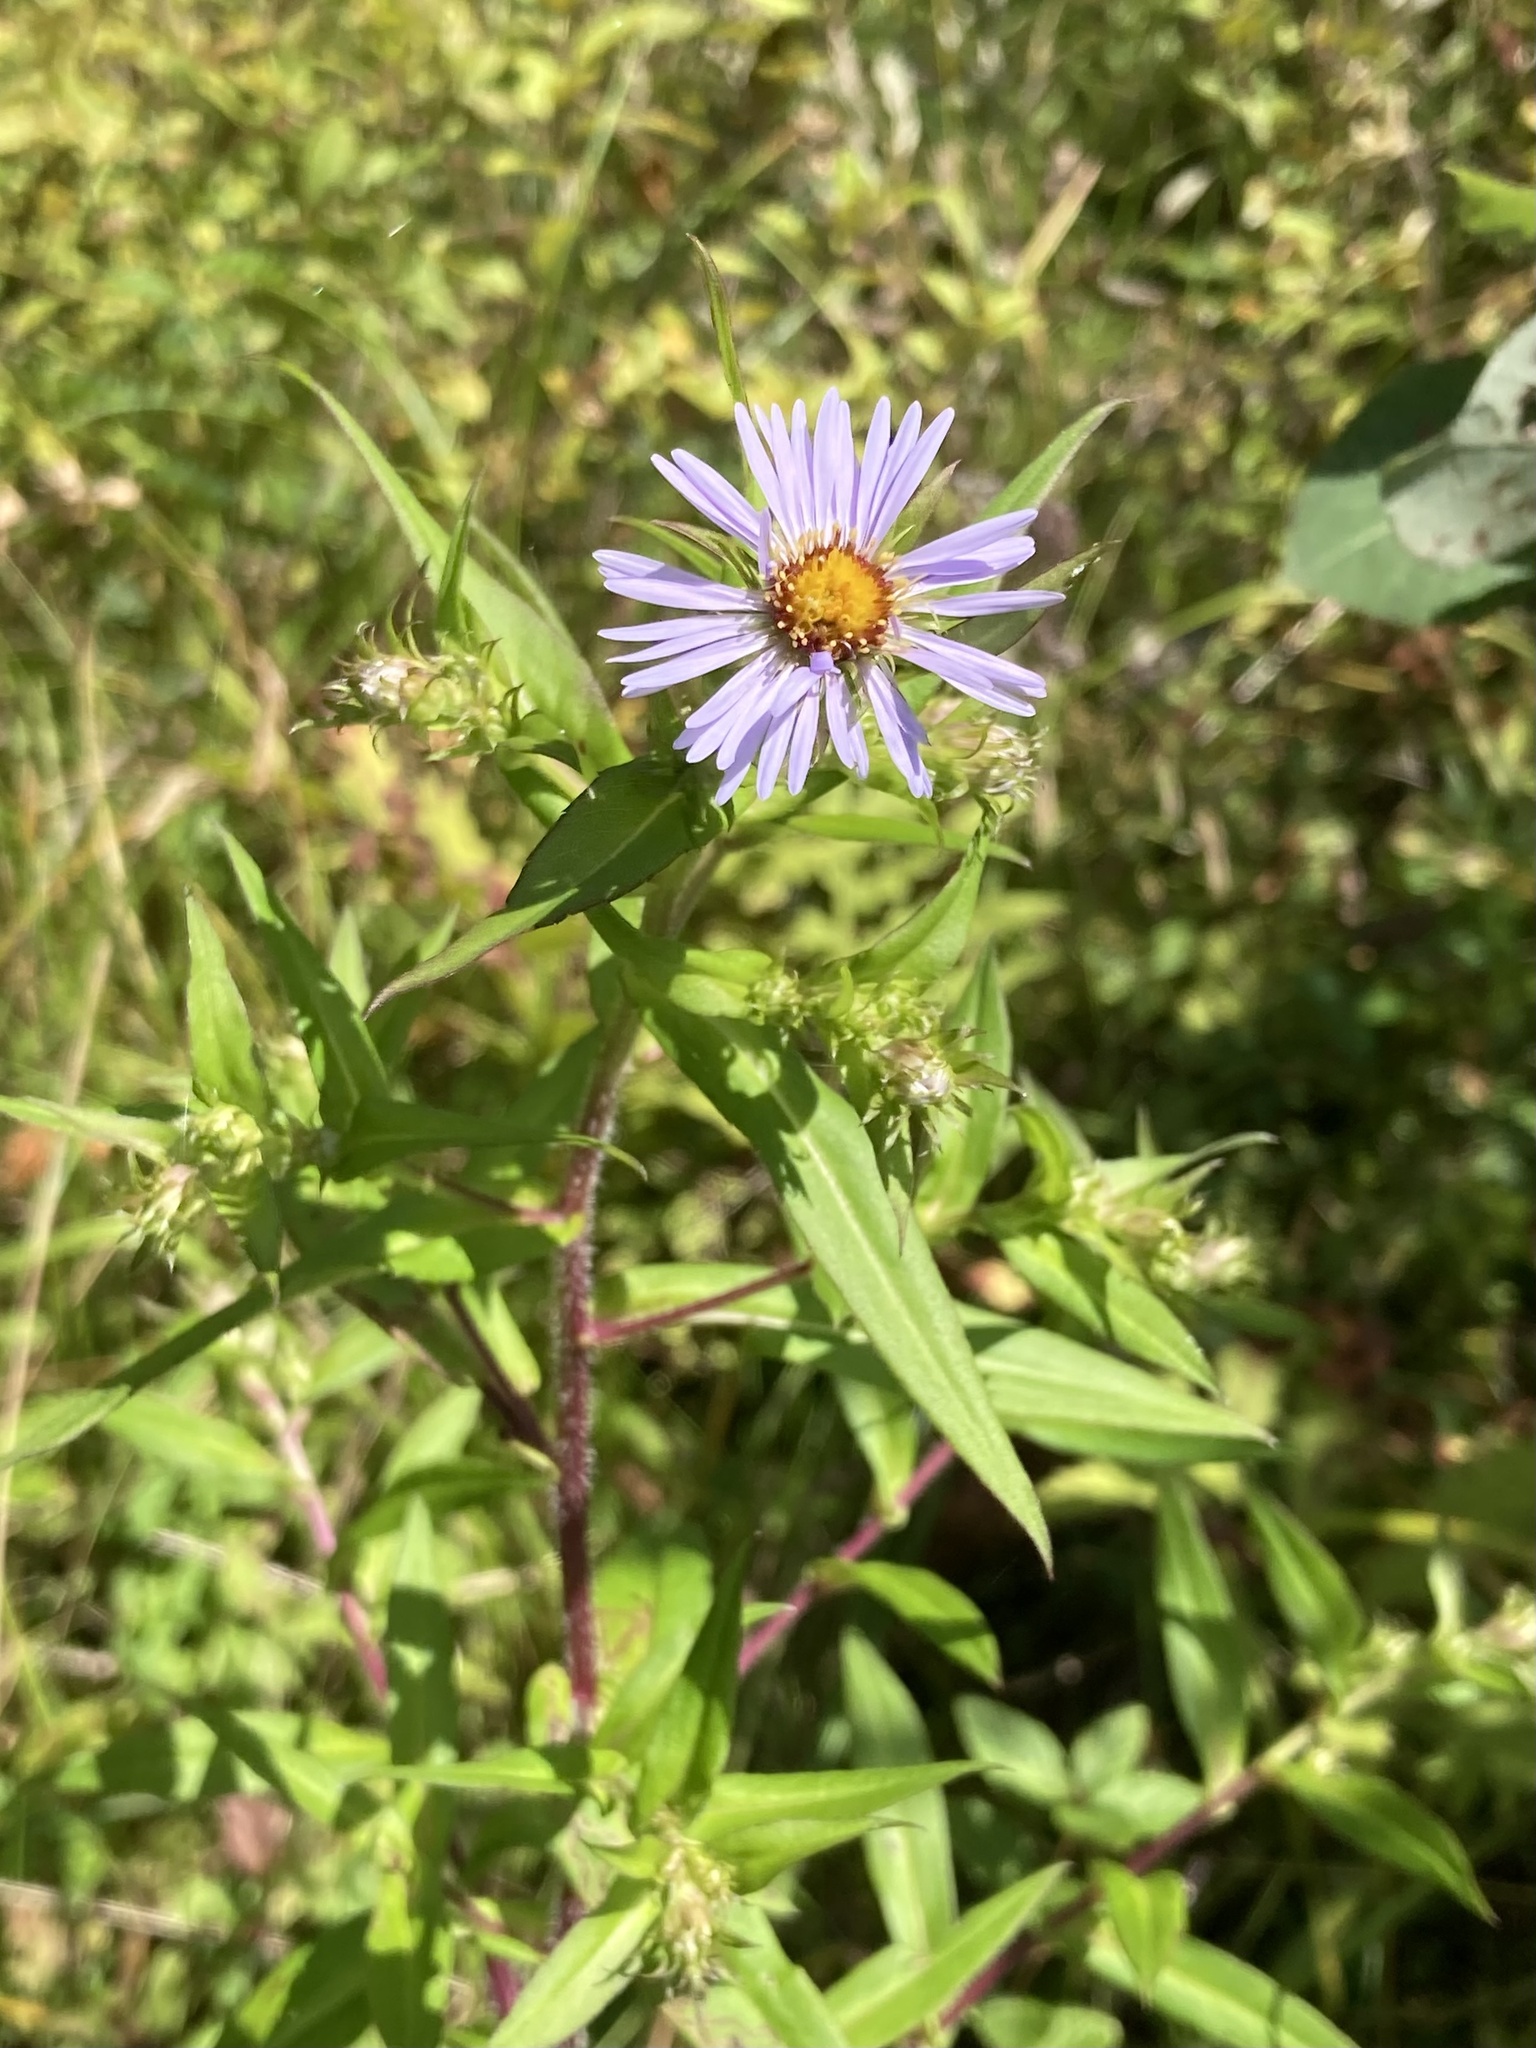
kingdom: Plantae
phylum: Tracheophyta
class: Magnoliopsida
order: Asterales
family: Asteraceae
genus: Symphyotrichum
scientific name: Symphyotrichum puniceum
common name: Bog aster
